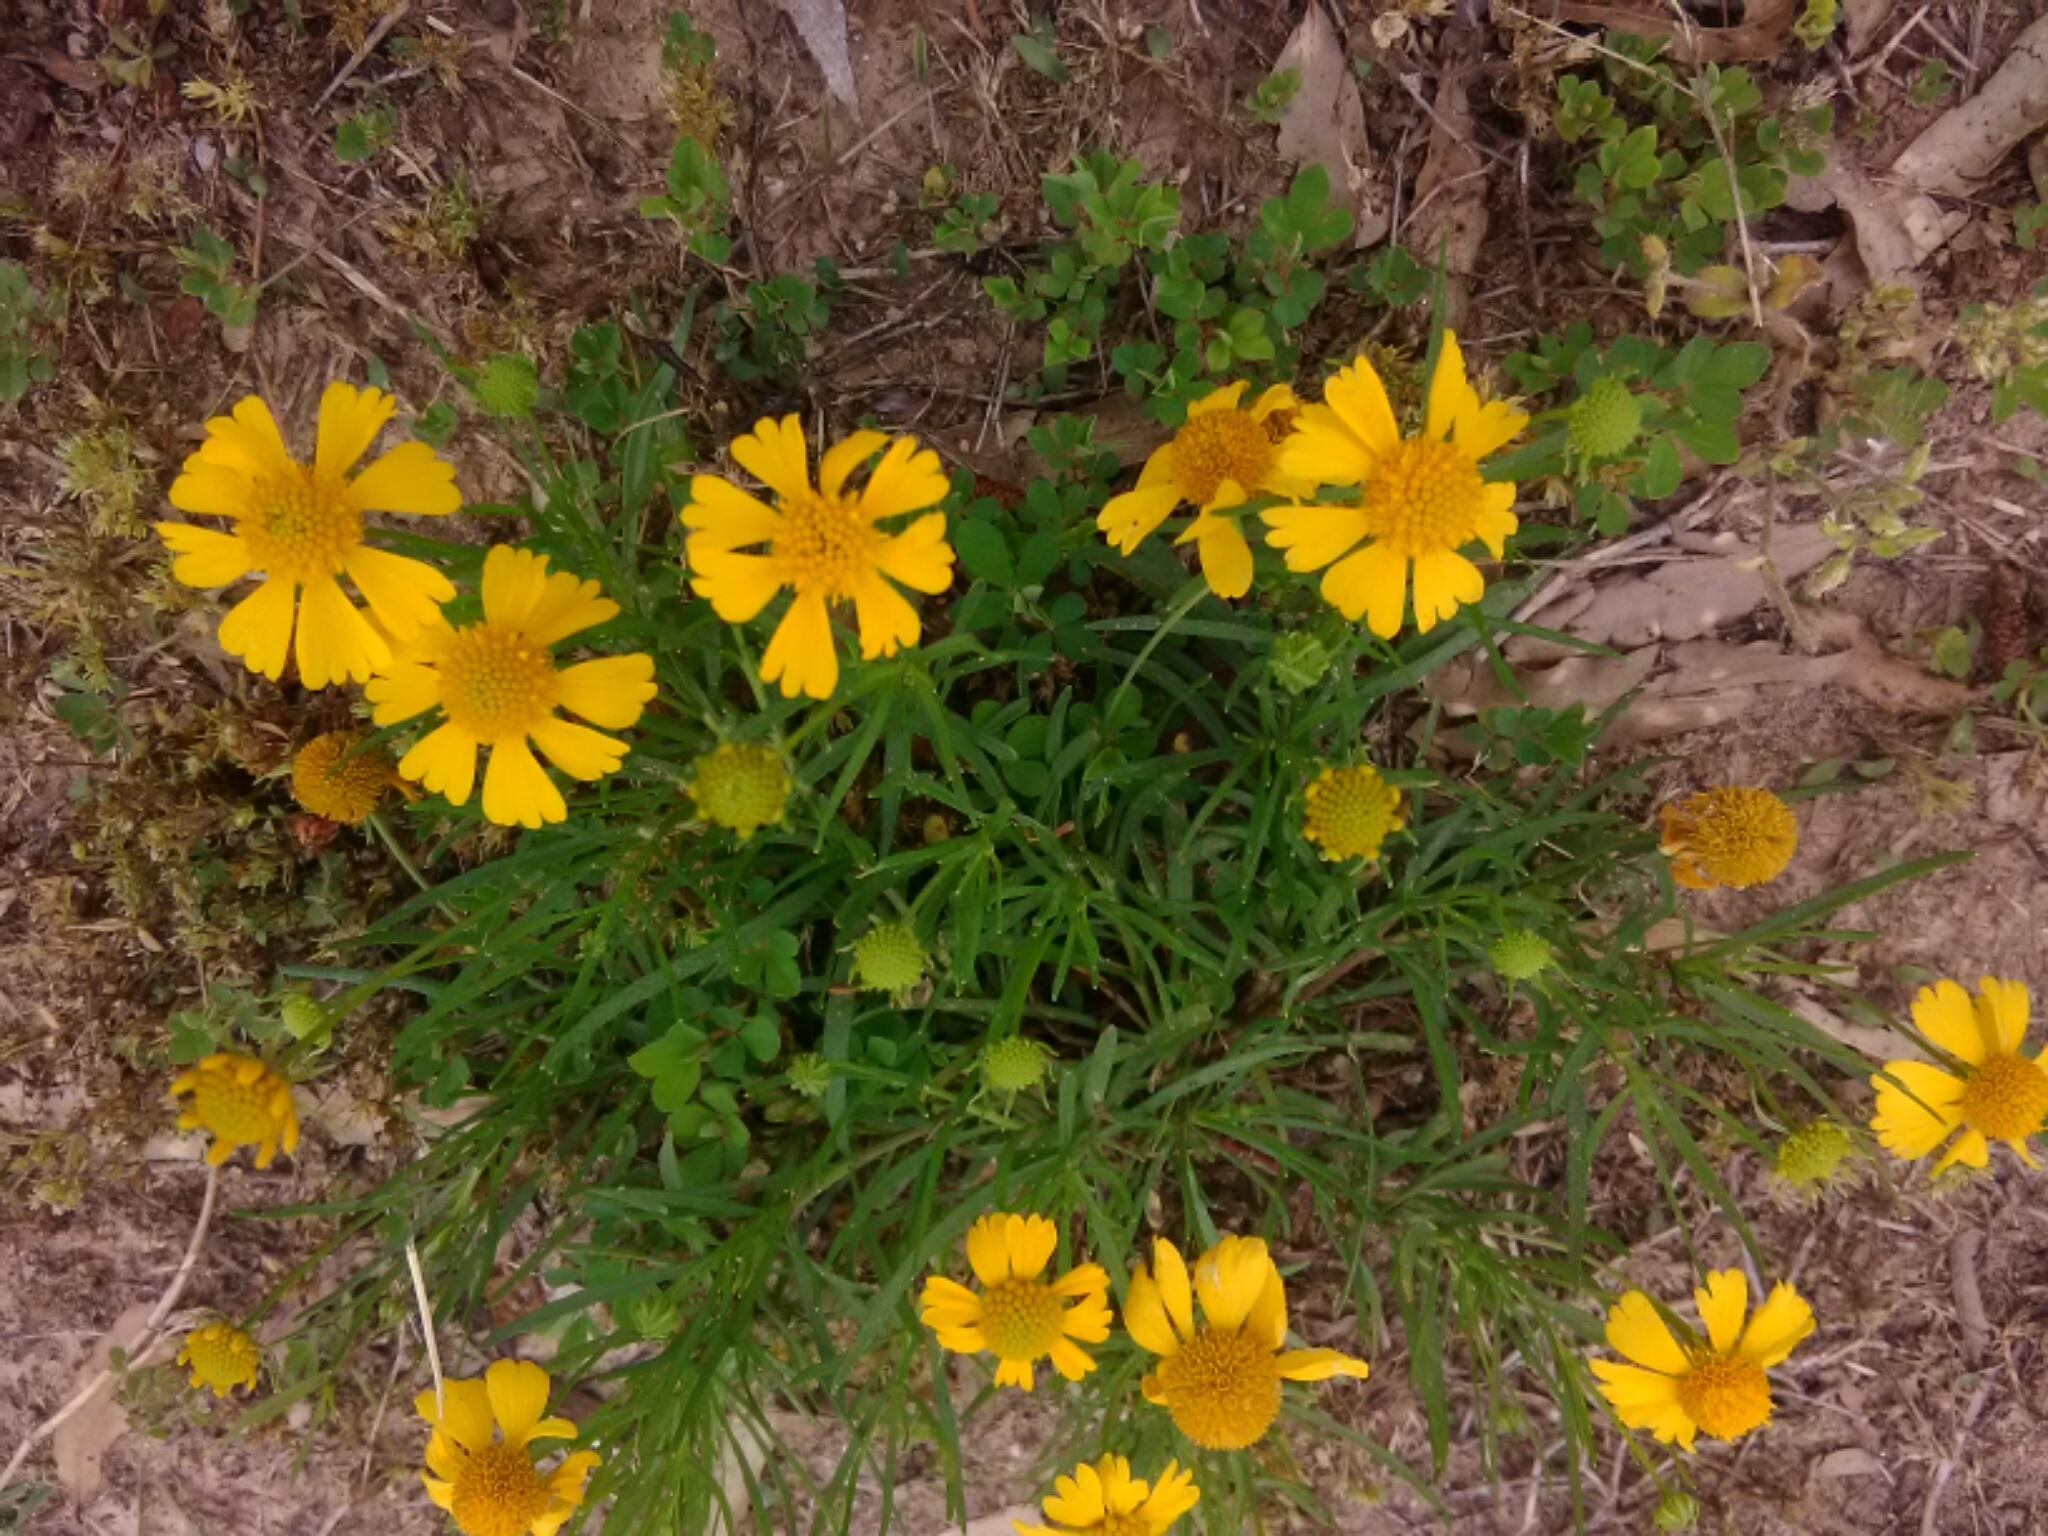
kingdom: Plantae
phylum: Tracheophyta
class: Magnoliopsida
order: Asterales
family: Asteraceae
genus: Helenium
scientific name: Helenium amarum
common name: Bitter sneezeweed
